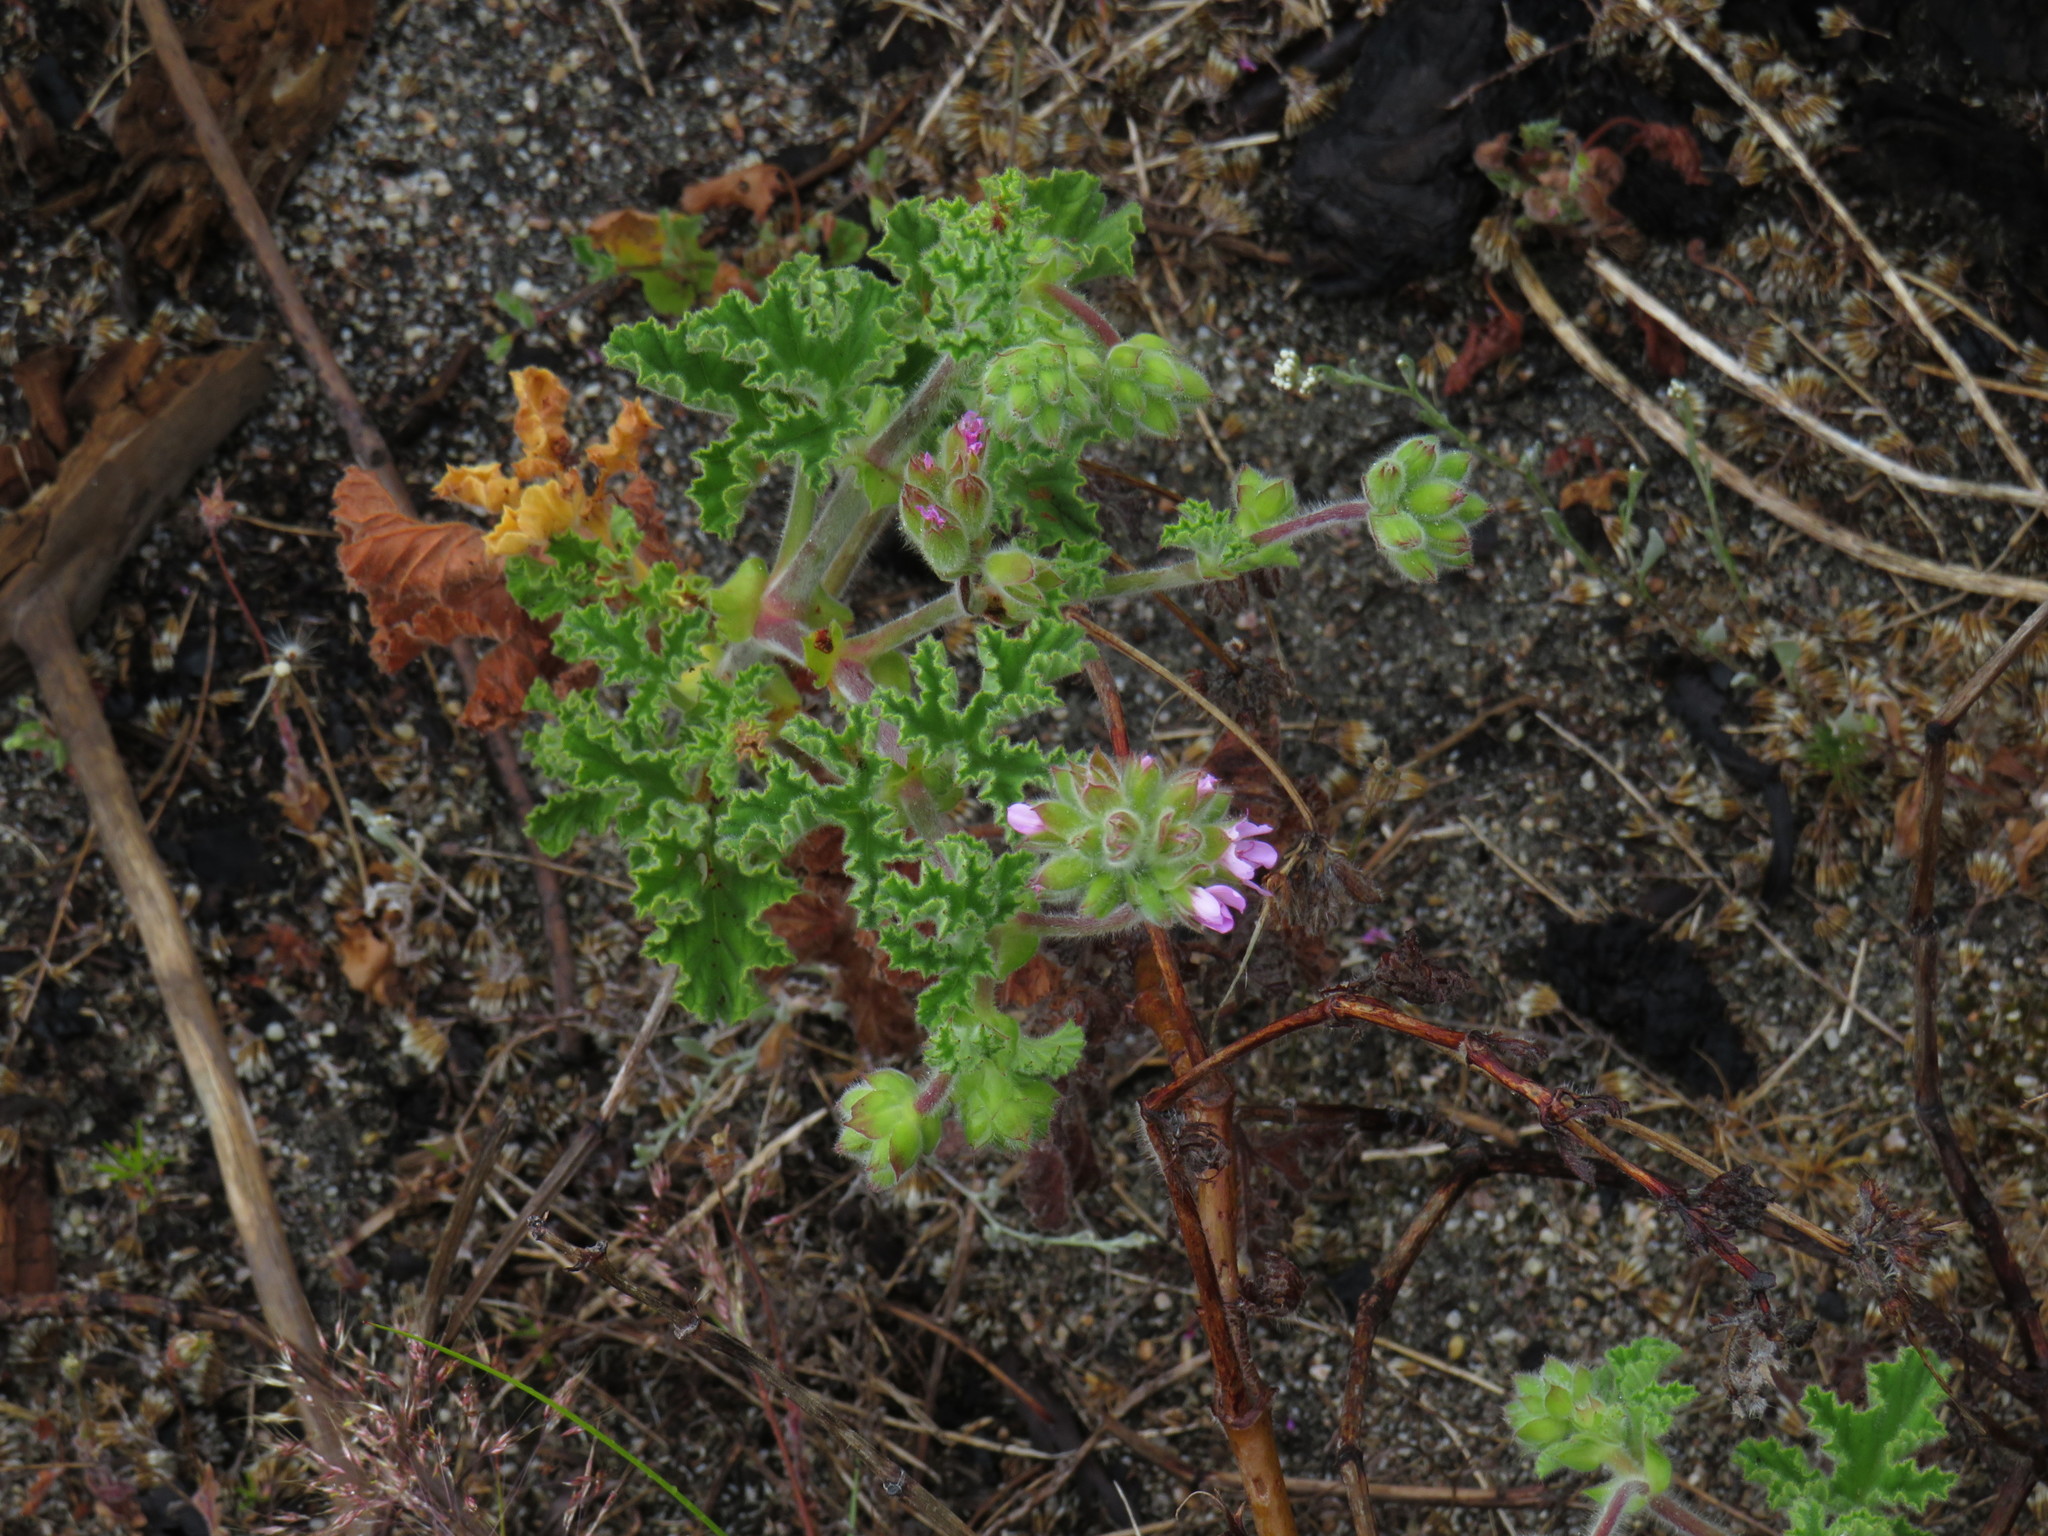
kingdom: Plantae
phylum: Tracheophyta
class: Magnoliopsida
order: Geraniales
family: Geraniaceae
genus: Pelargonium
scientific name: Pelargonium capitatum
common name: Rose scented geranium
